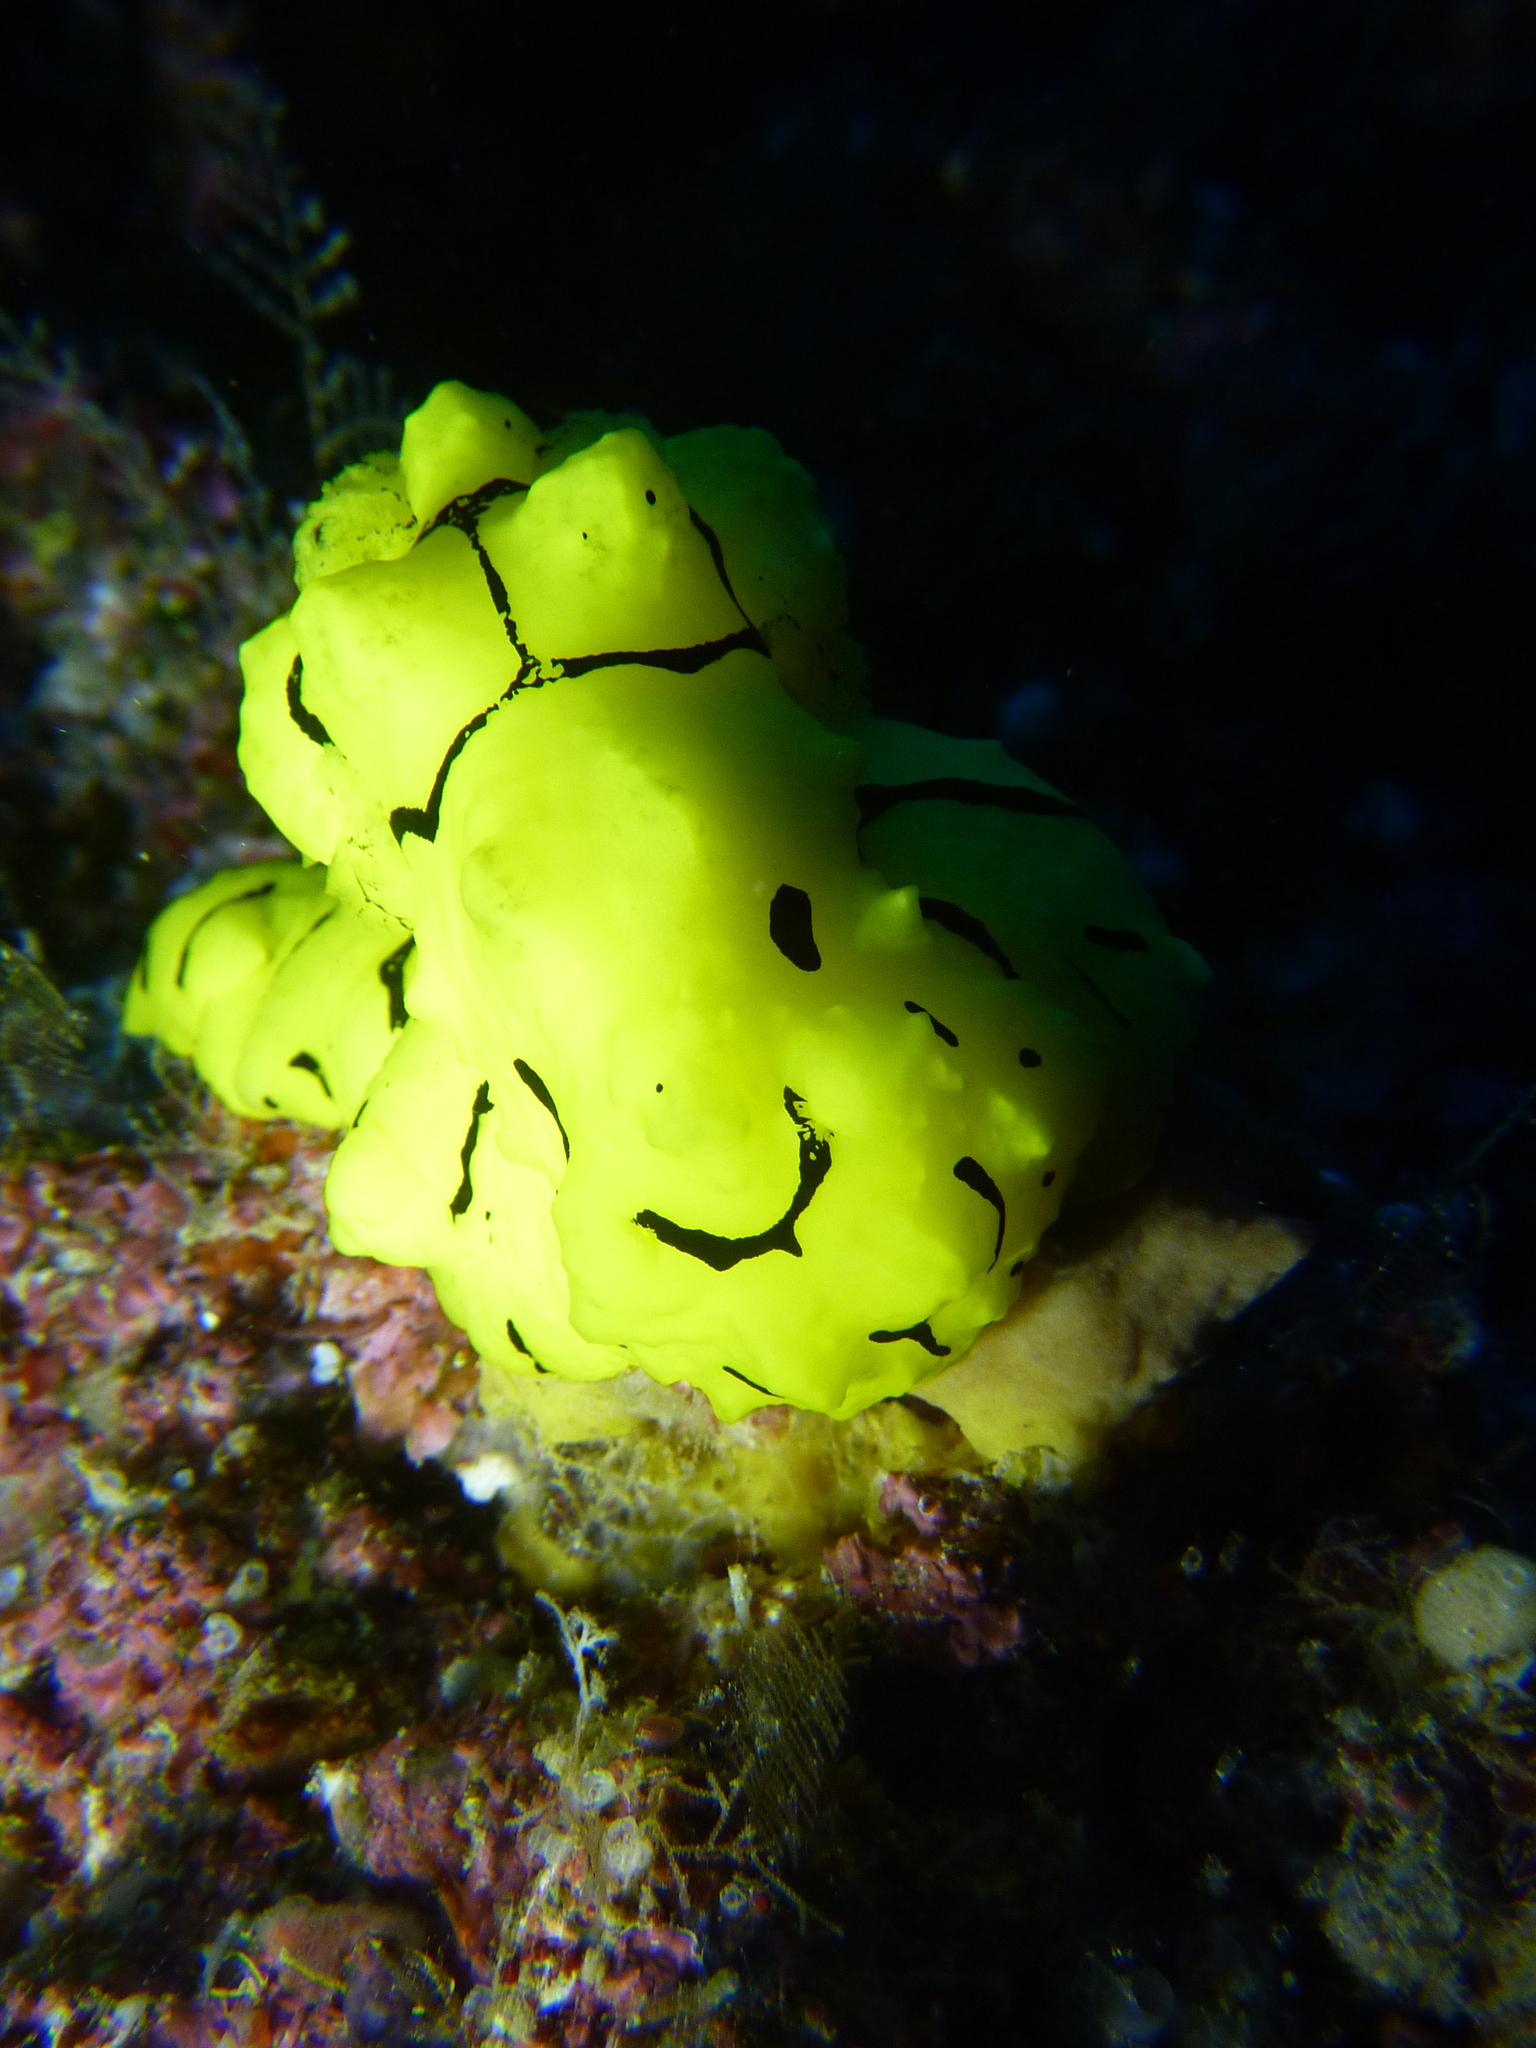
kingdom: Animalia
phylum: Mollusca
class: Gastropoda
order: Nudibranchia
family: Aegiridae
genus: Notodoris
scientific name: Notodoris minor
